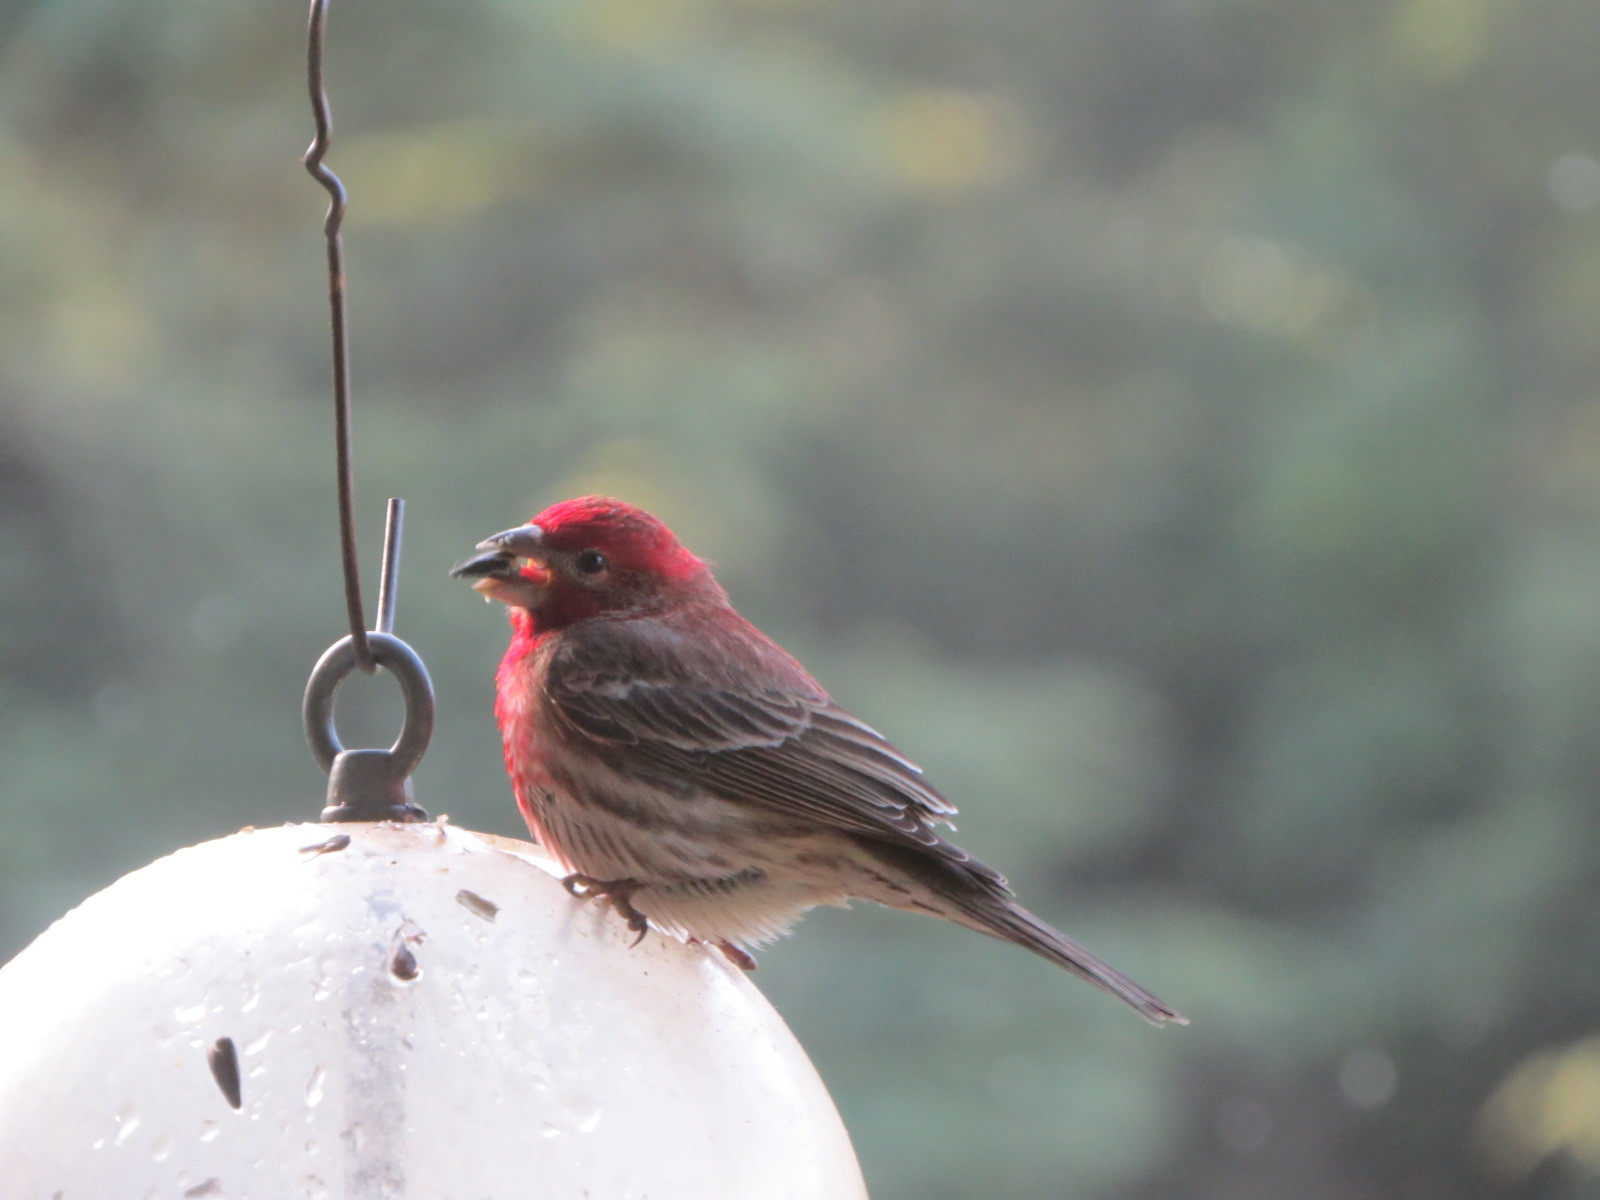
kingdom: Animalia
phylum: Chordata
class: Aves
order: Passeriformes
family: Fringillidae
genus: Haemorhous
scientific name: Haemorhous mexicanus
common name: House finch
